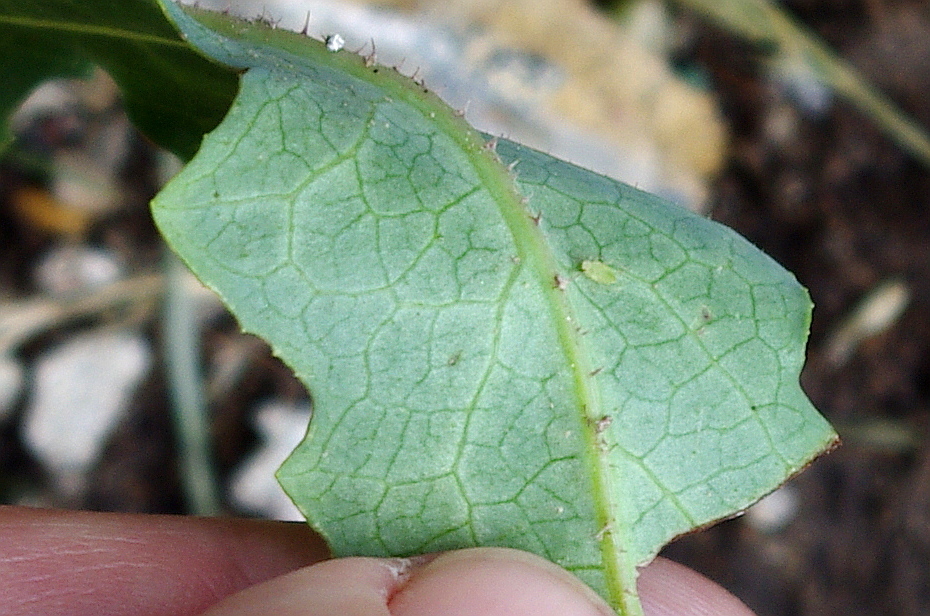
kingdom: Plantae
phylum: Tracheophyta
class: Magnoliopsida
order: Asterales
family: Asteraceae
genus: Lactuca
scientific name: Lactuca serriola
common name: Prickly lettuce
